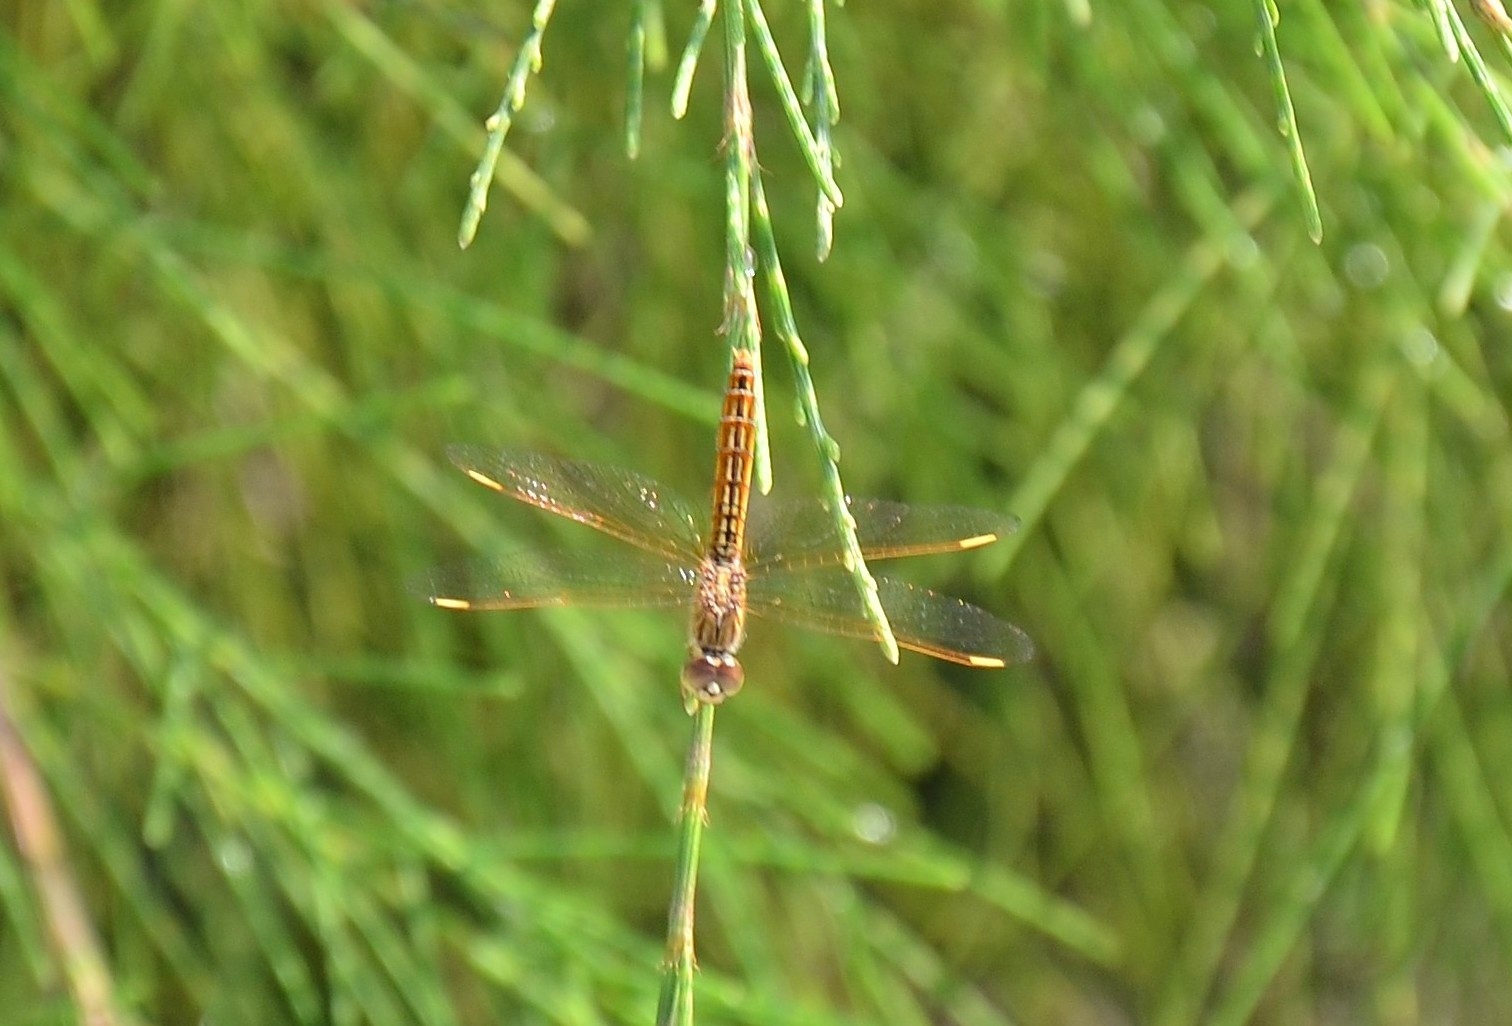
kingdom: Animalia
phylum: Arthropoda
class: Insecta
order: Odonata
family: Libellulidae
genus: Brachythemis
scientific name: Brachythemis contaminata
